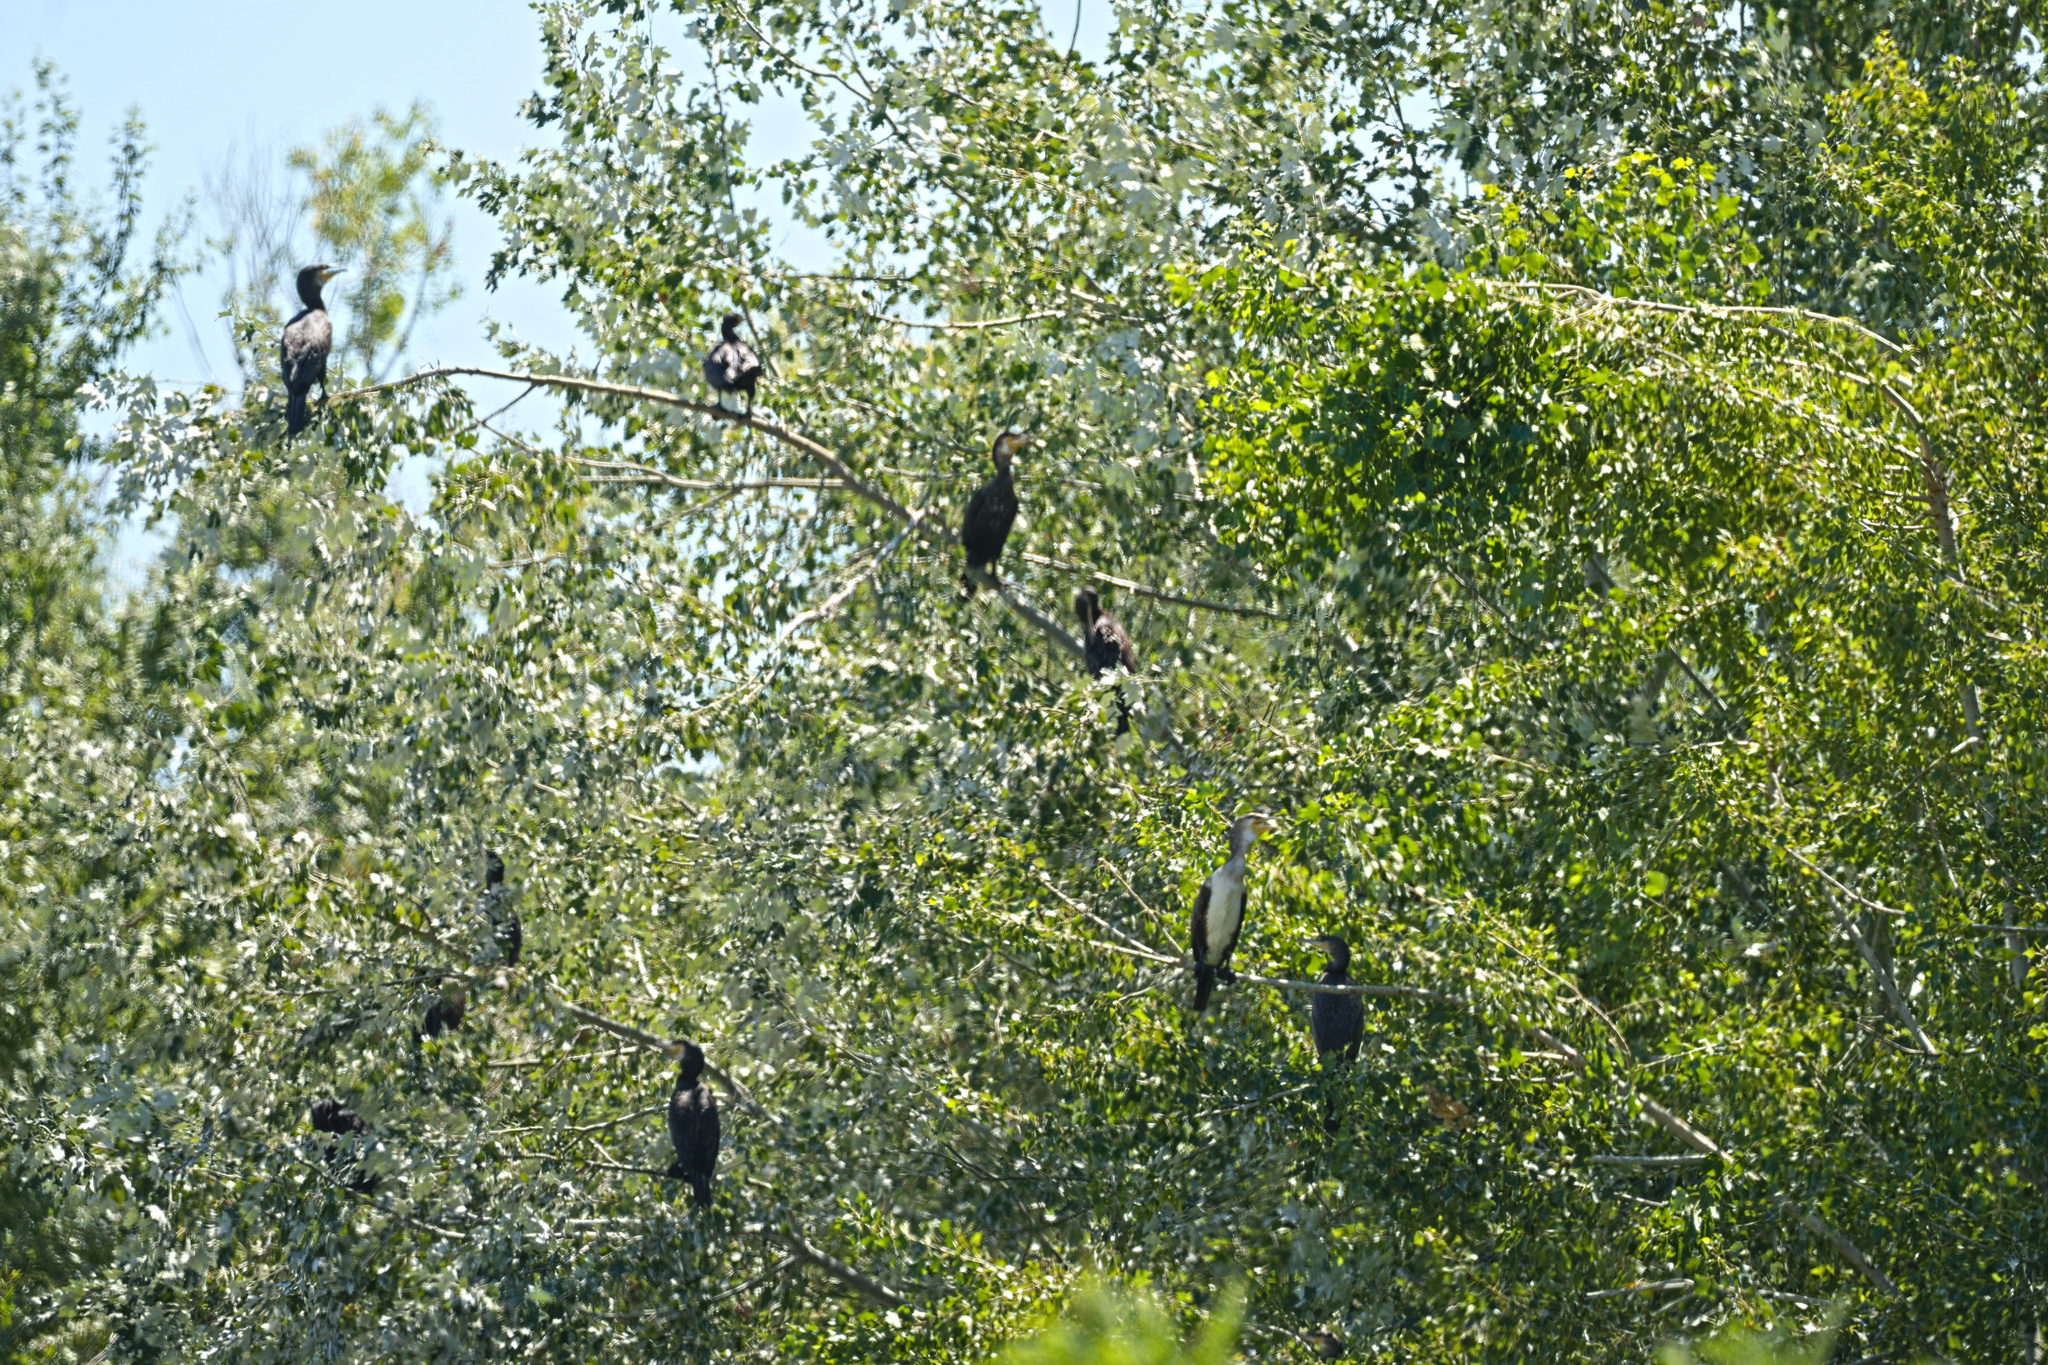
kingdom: Animalia
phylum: Chordata
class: Aves
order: Suliformes
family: Phalacrocoracidae
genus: Phalacrocorax
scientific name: Phalacrocorax carbo
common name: Great cormorant
